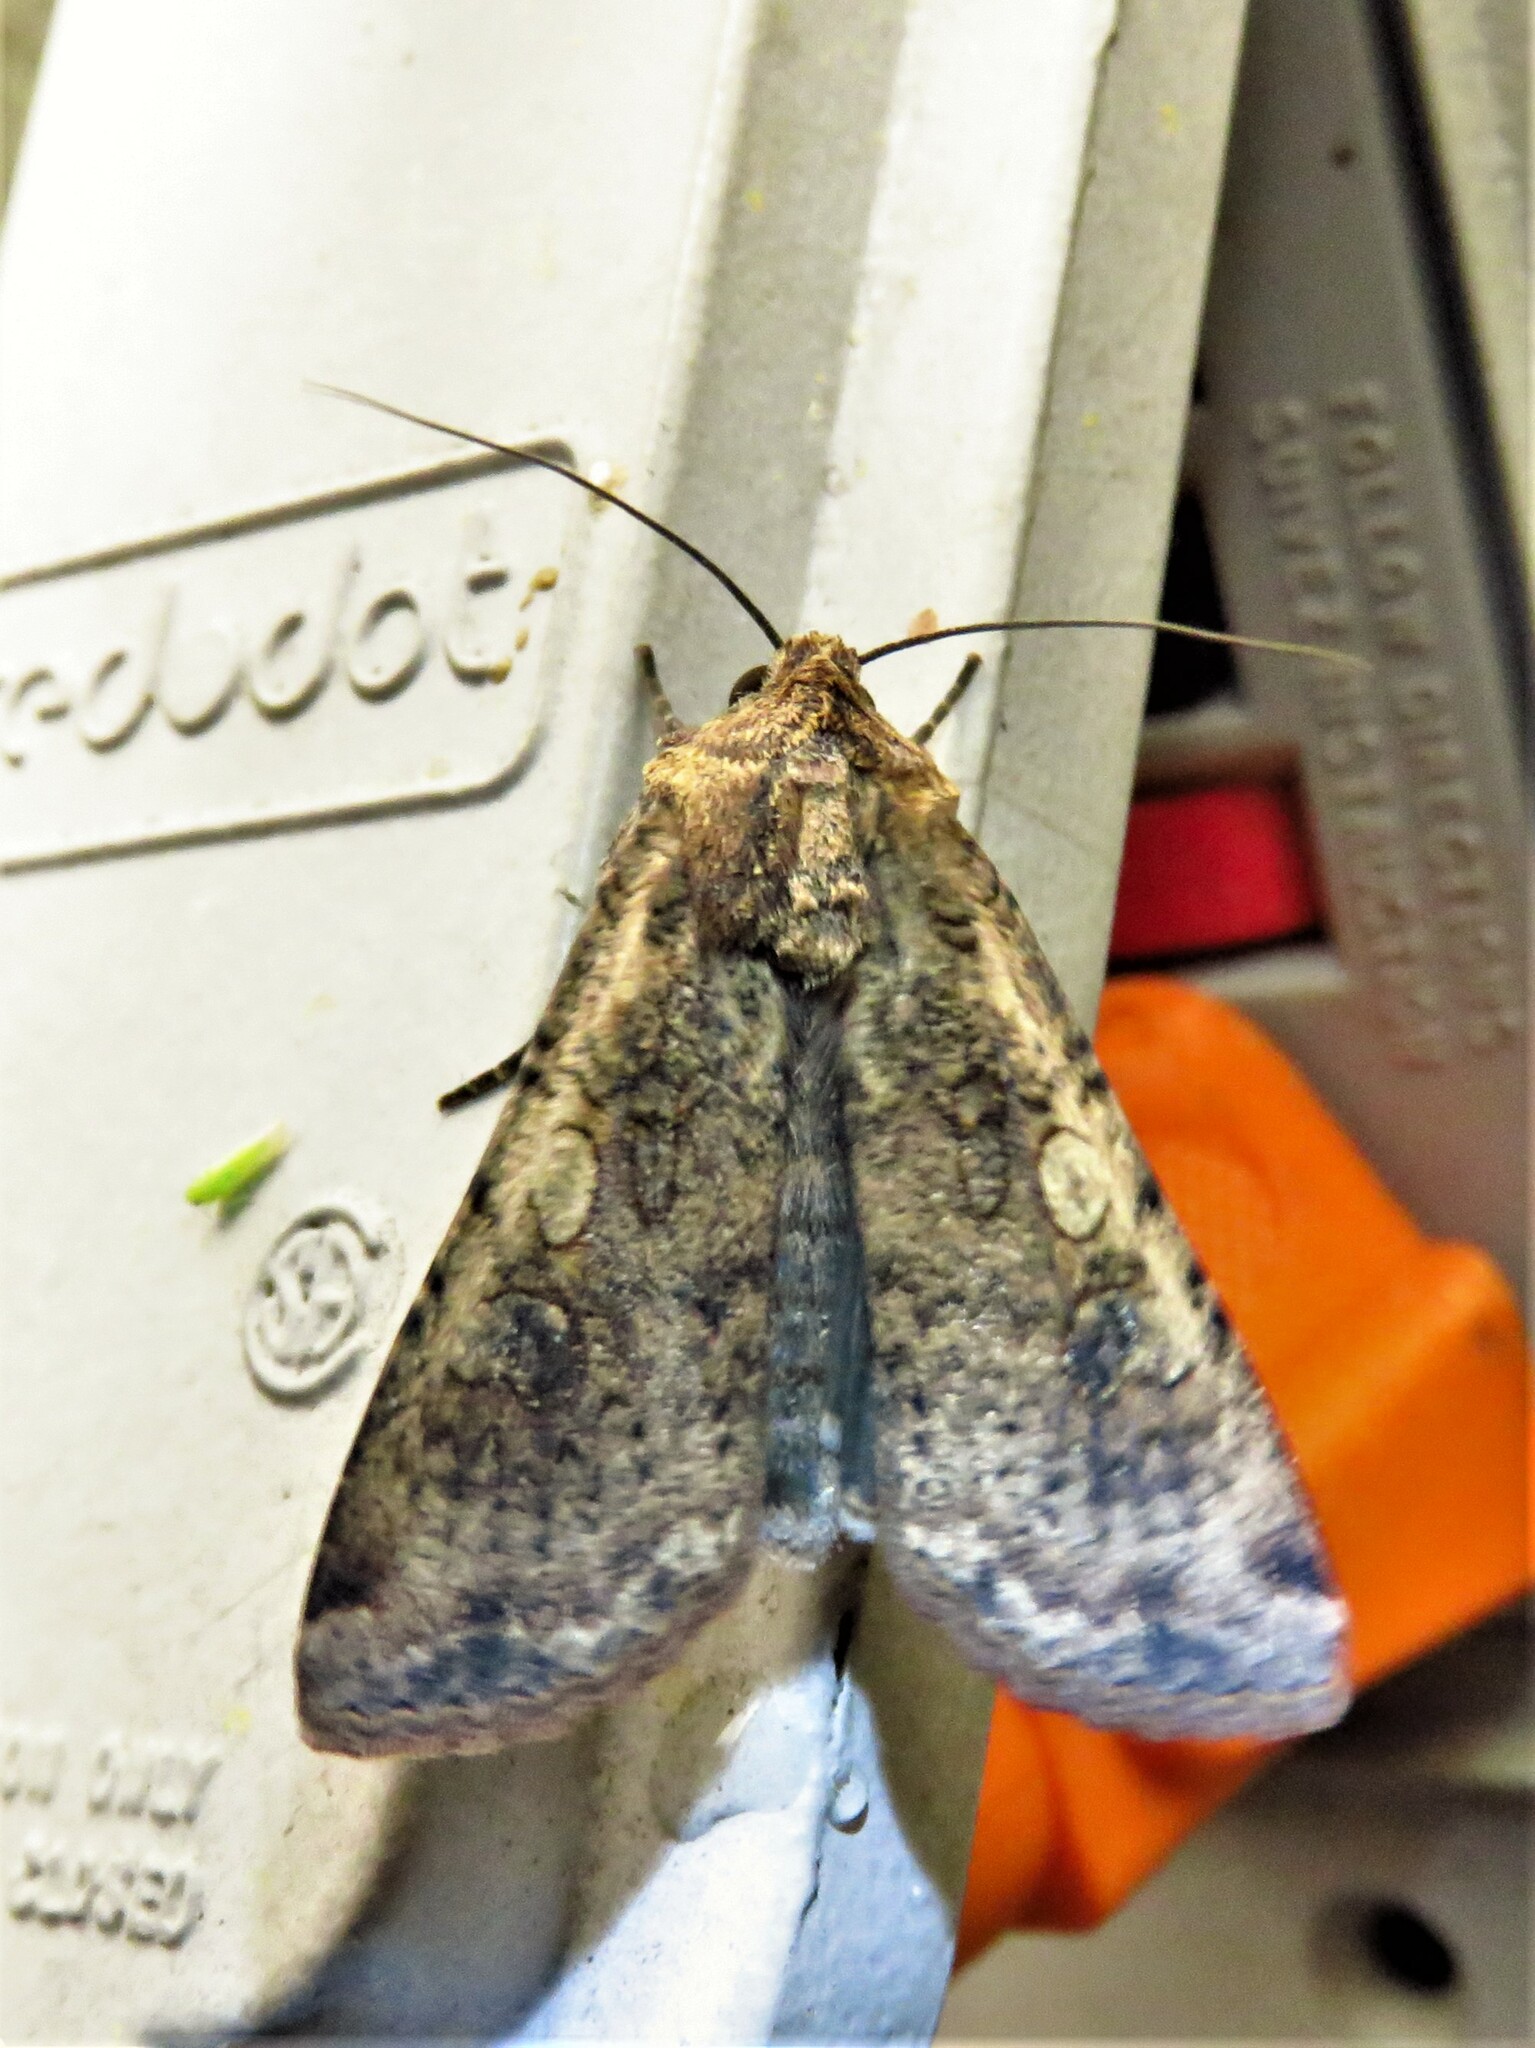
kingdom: Animalia
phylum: Arthropoda
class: Insecta
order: Lepidoptera
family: Noctuidae
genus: Peridroma
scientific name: Peridroma saucia
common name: Pearly underwing
